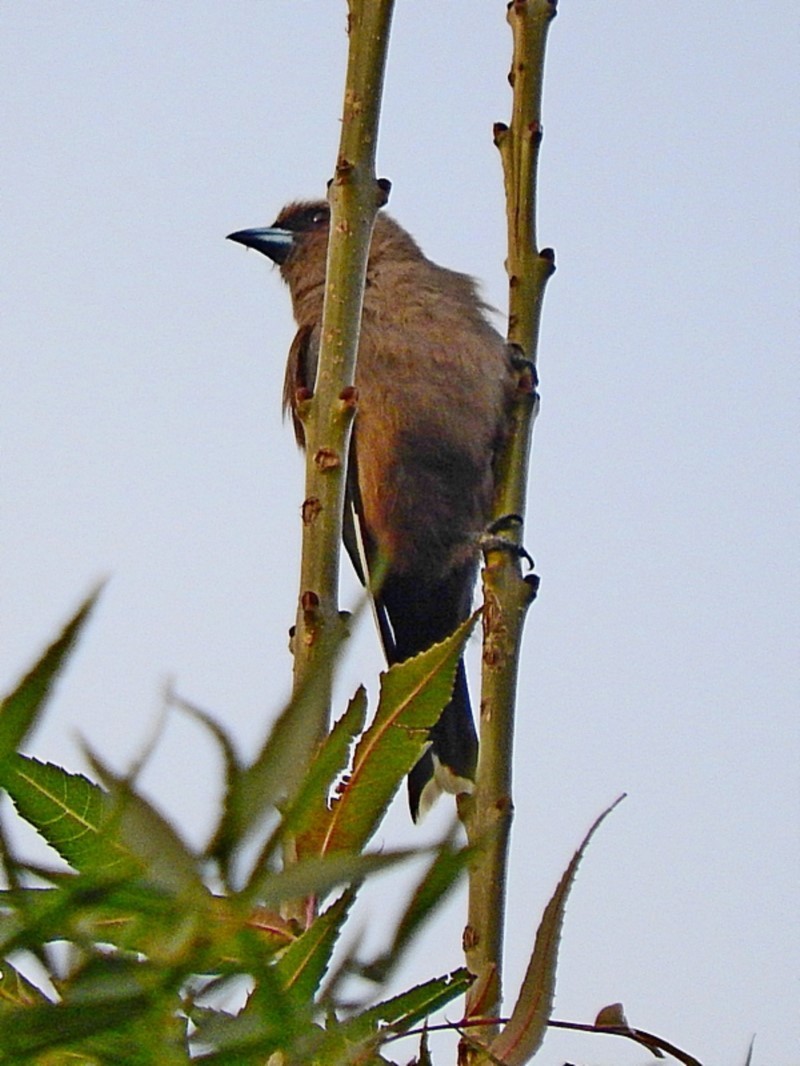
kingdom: Animalia
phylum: Chordata
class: Aves
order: Passeriformes
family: Artamidae
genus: Artamus
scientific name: Artamus cyanopterus
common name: Dusky woodswallow
